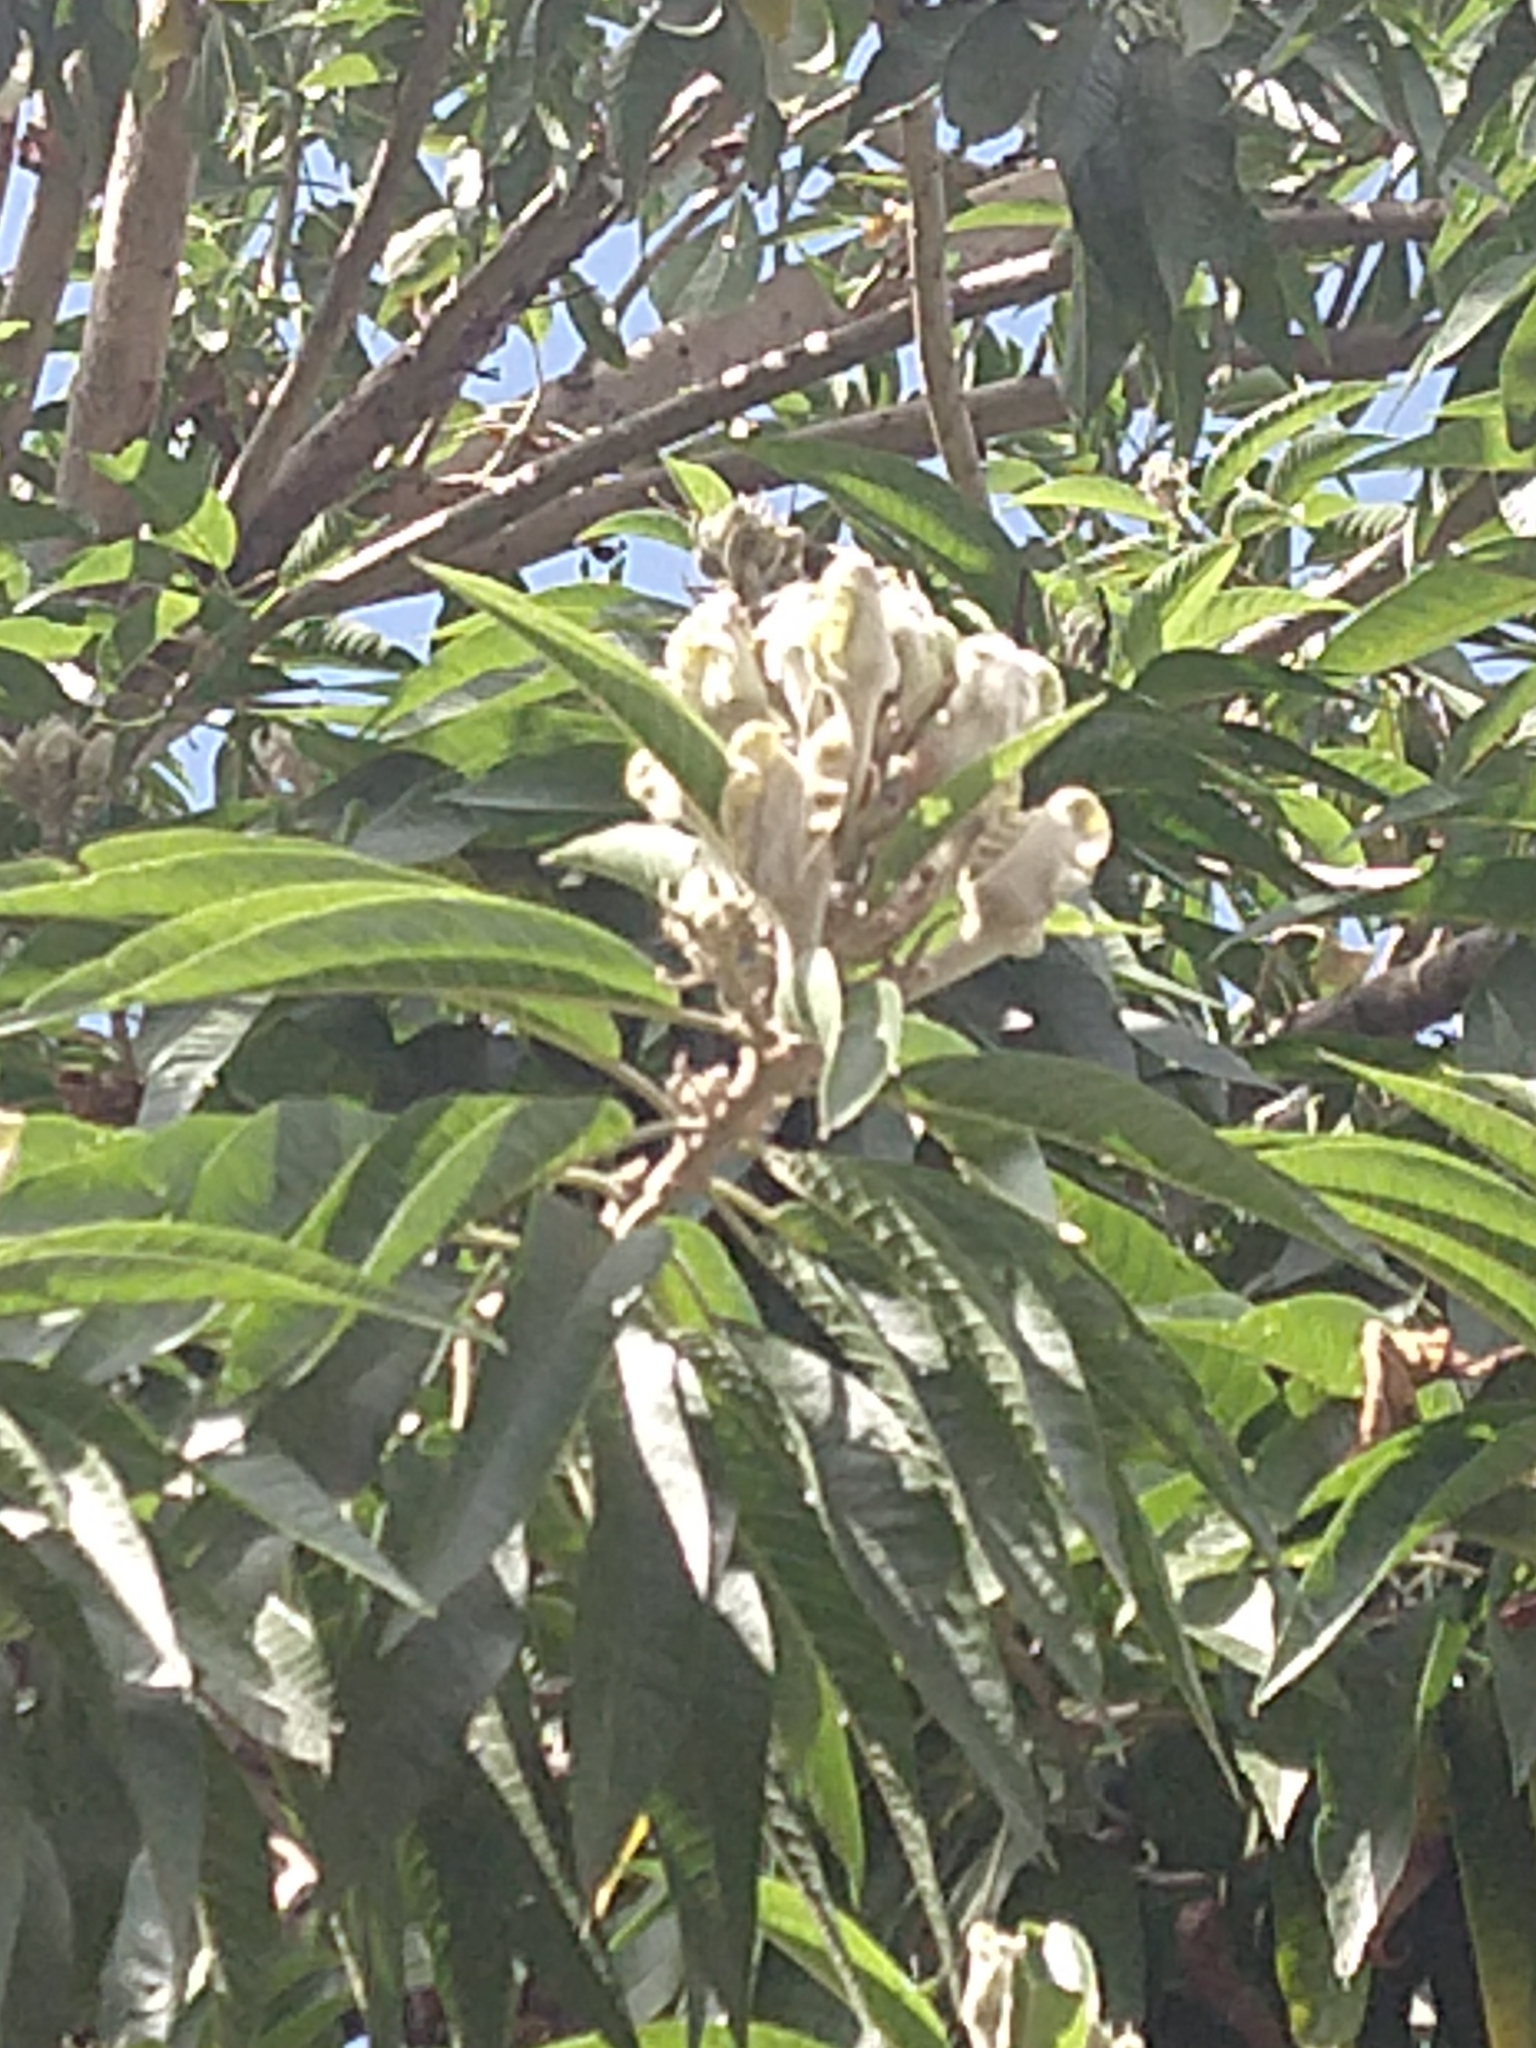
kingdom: Plantae
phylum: Tracheophyta
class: Magnoliopsida
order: Solanales
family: Convolvulaceae
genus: Ipomoea
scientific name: Ipomoea murucoides
